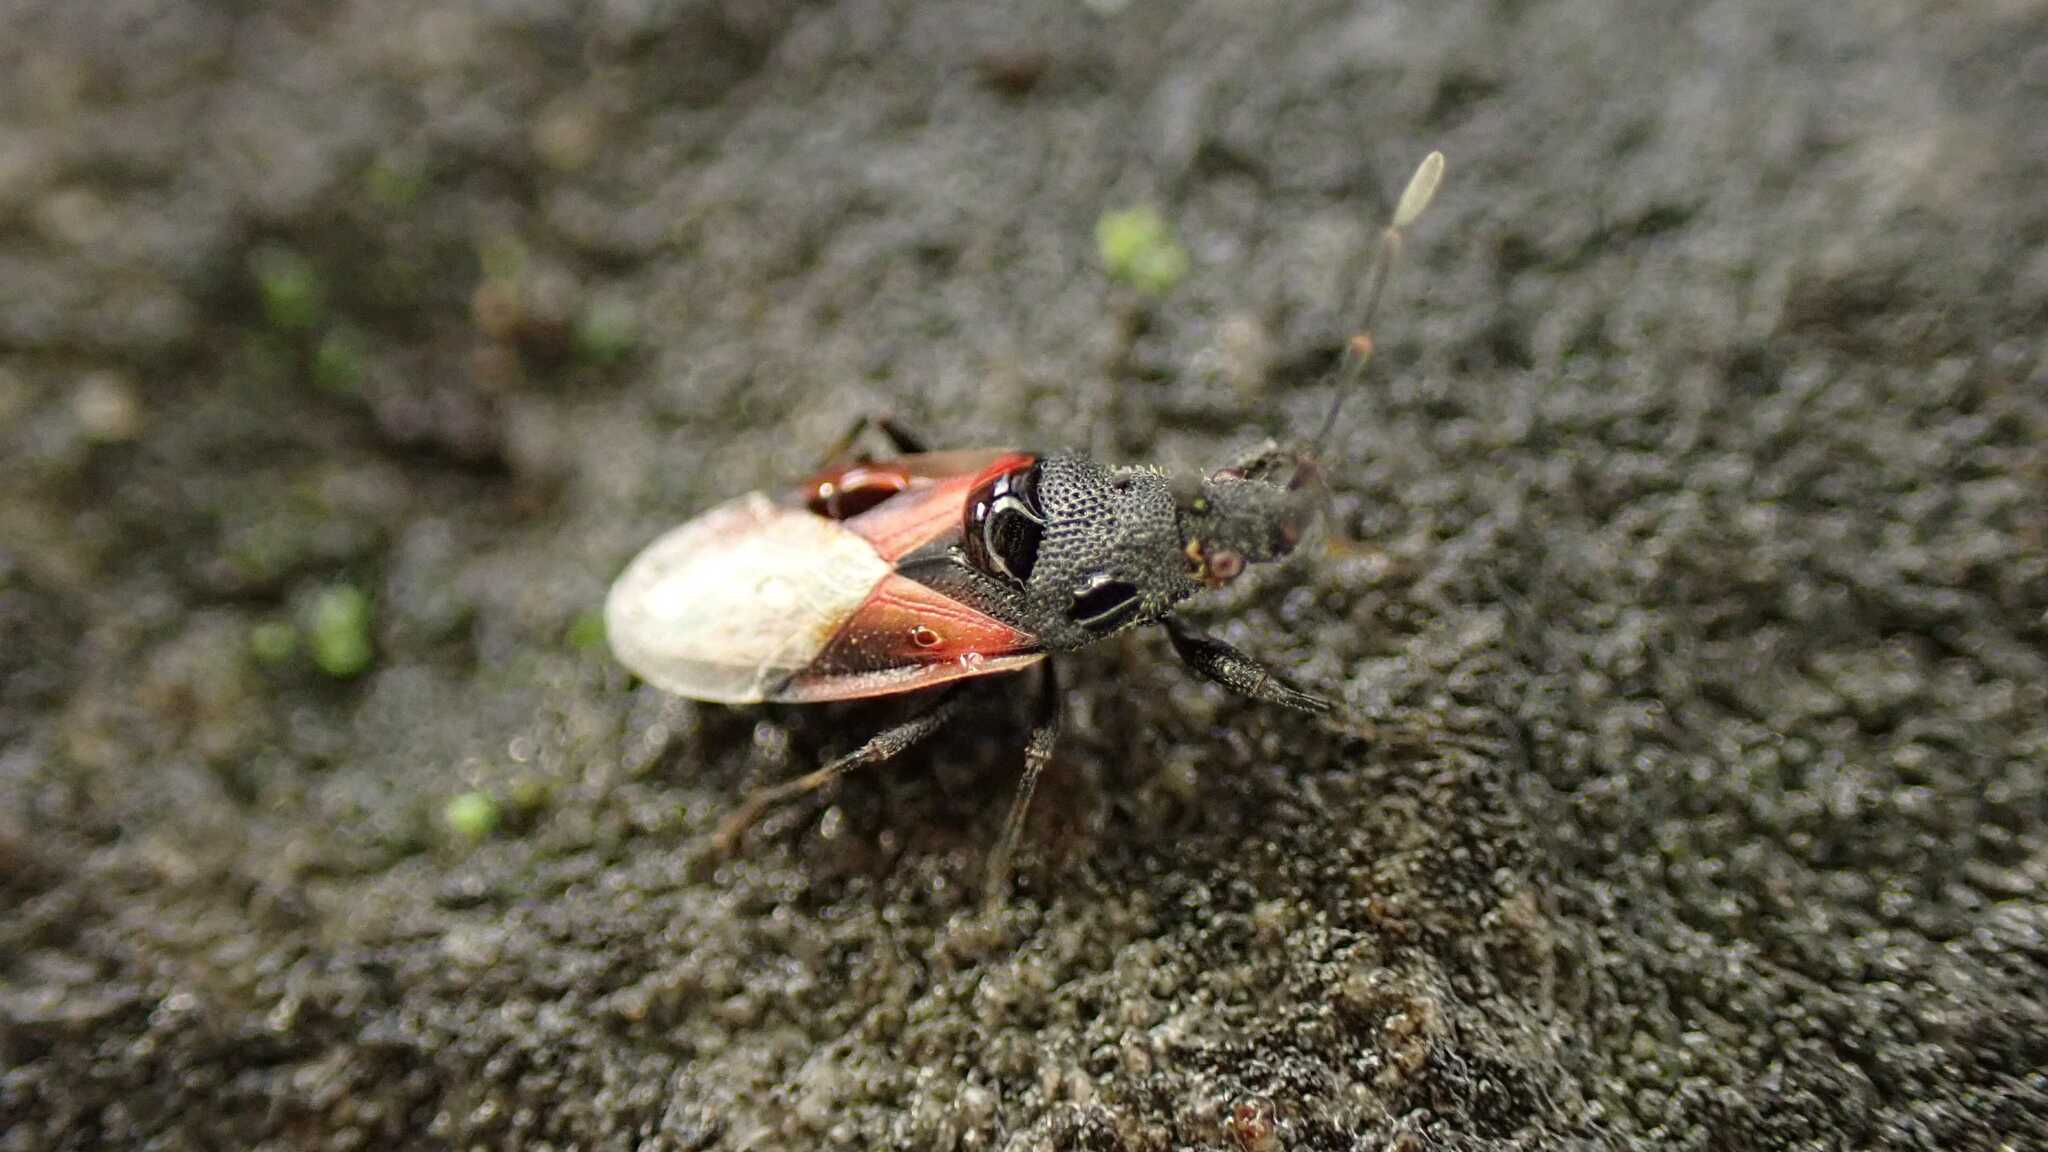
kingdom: Animalia
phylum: Arthropoda
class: Insecta
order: Hemiptera
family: Oxycarenidae
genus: Oxycarenus
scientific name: Oxycarenus lavaterae
